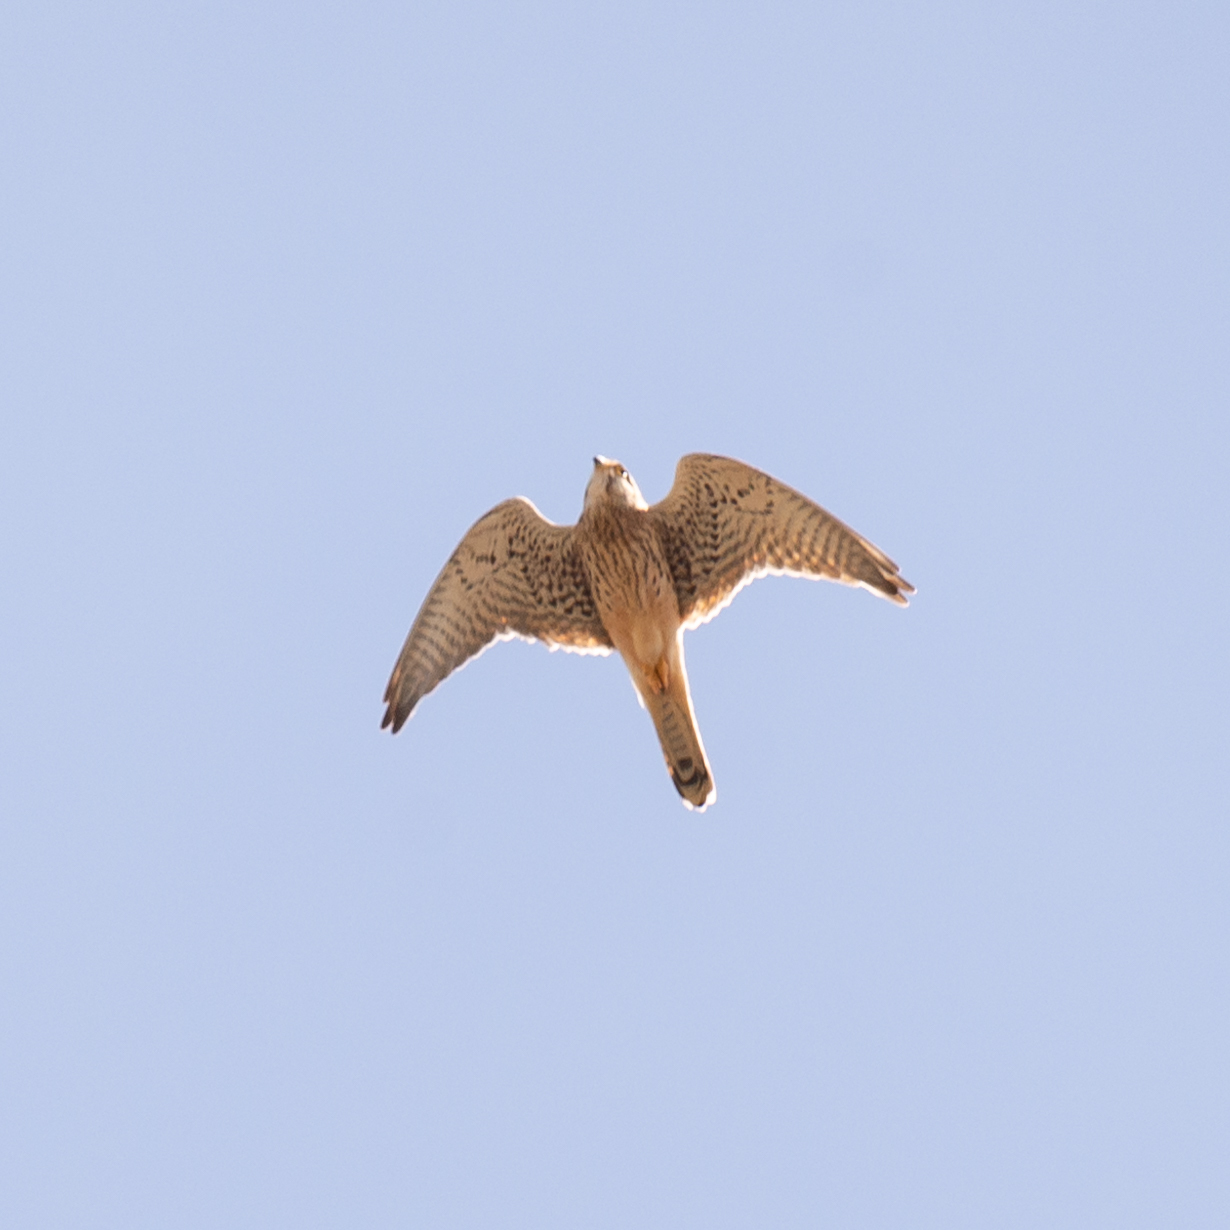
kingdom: Animalia
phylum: Chordata
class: Aves
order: Falconiformes
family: Falconidae
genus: Falco
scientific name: Falco tinnunculus
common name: Common kestrel
